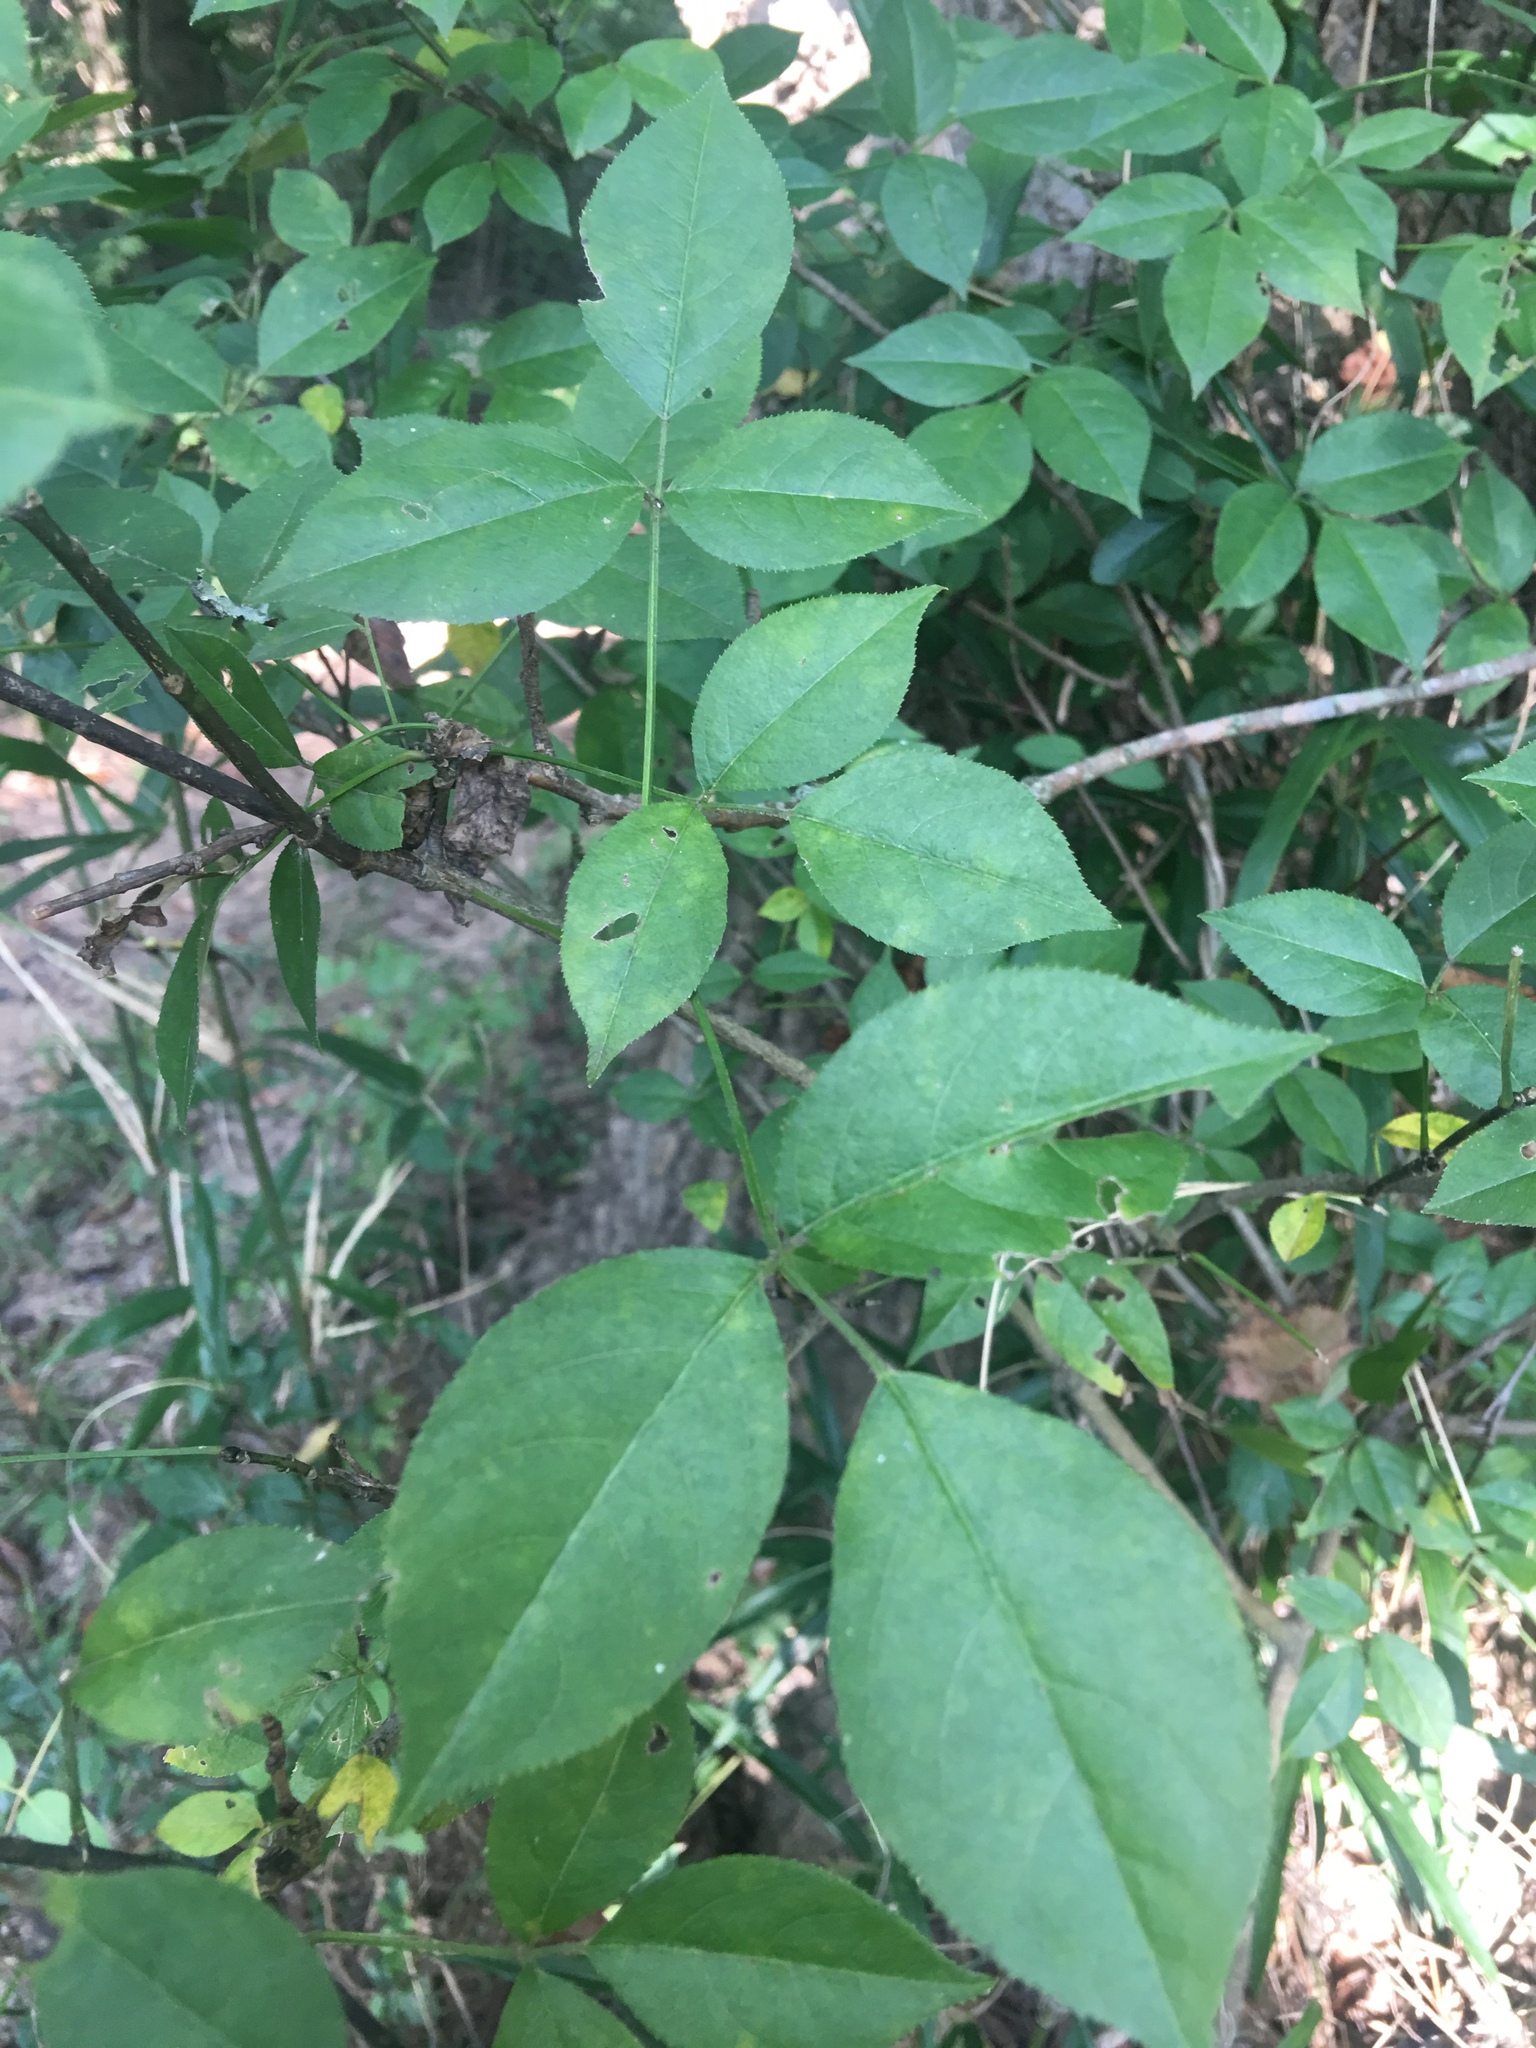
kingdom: Plantae
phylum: Tracheophyta
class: Magnoliopsida
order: Crossosomatales
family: Staphyleaceae
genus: Staphylea
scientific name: Staphylea trifolia
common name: American bladdernut
